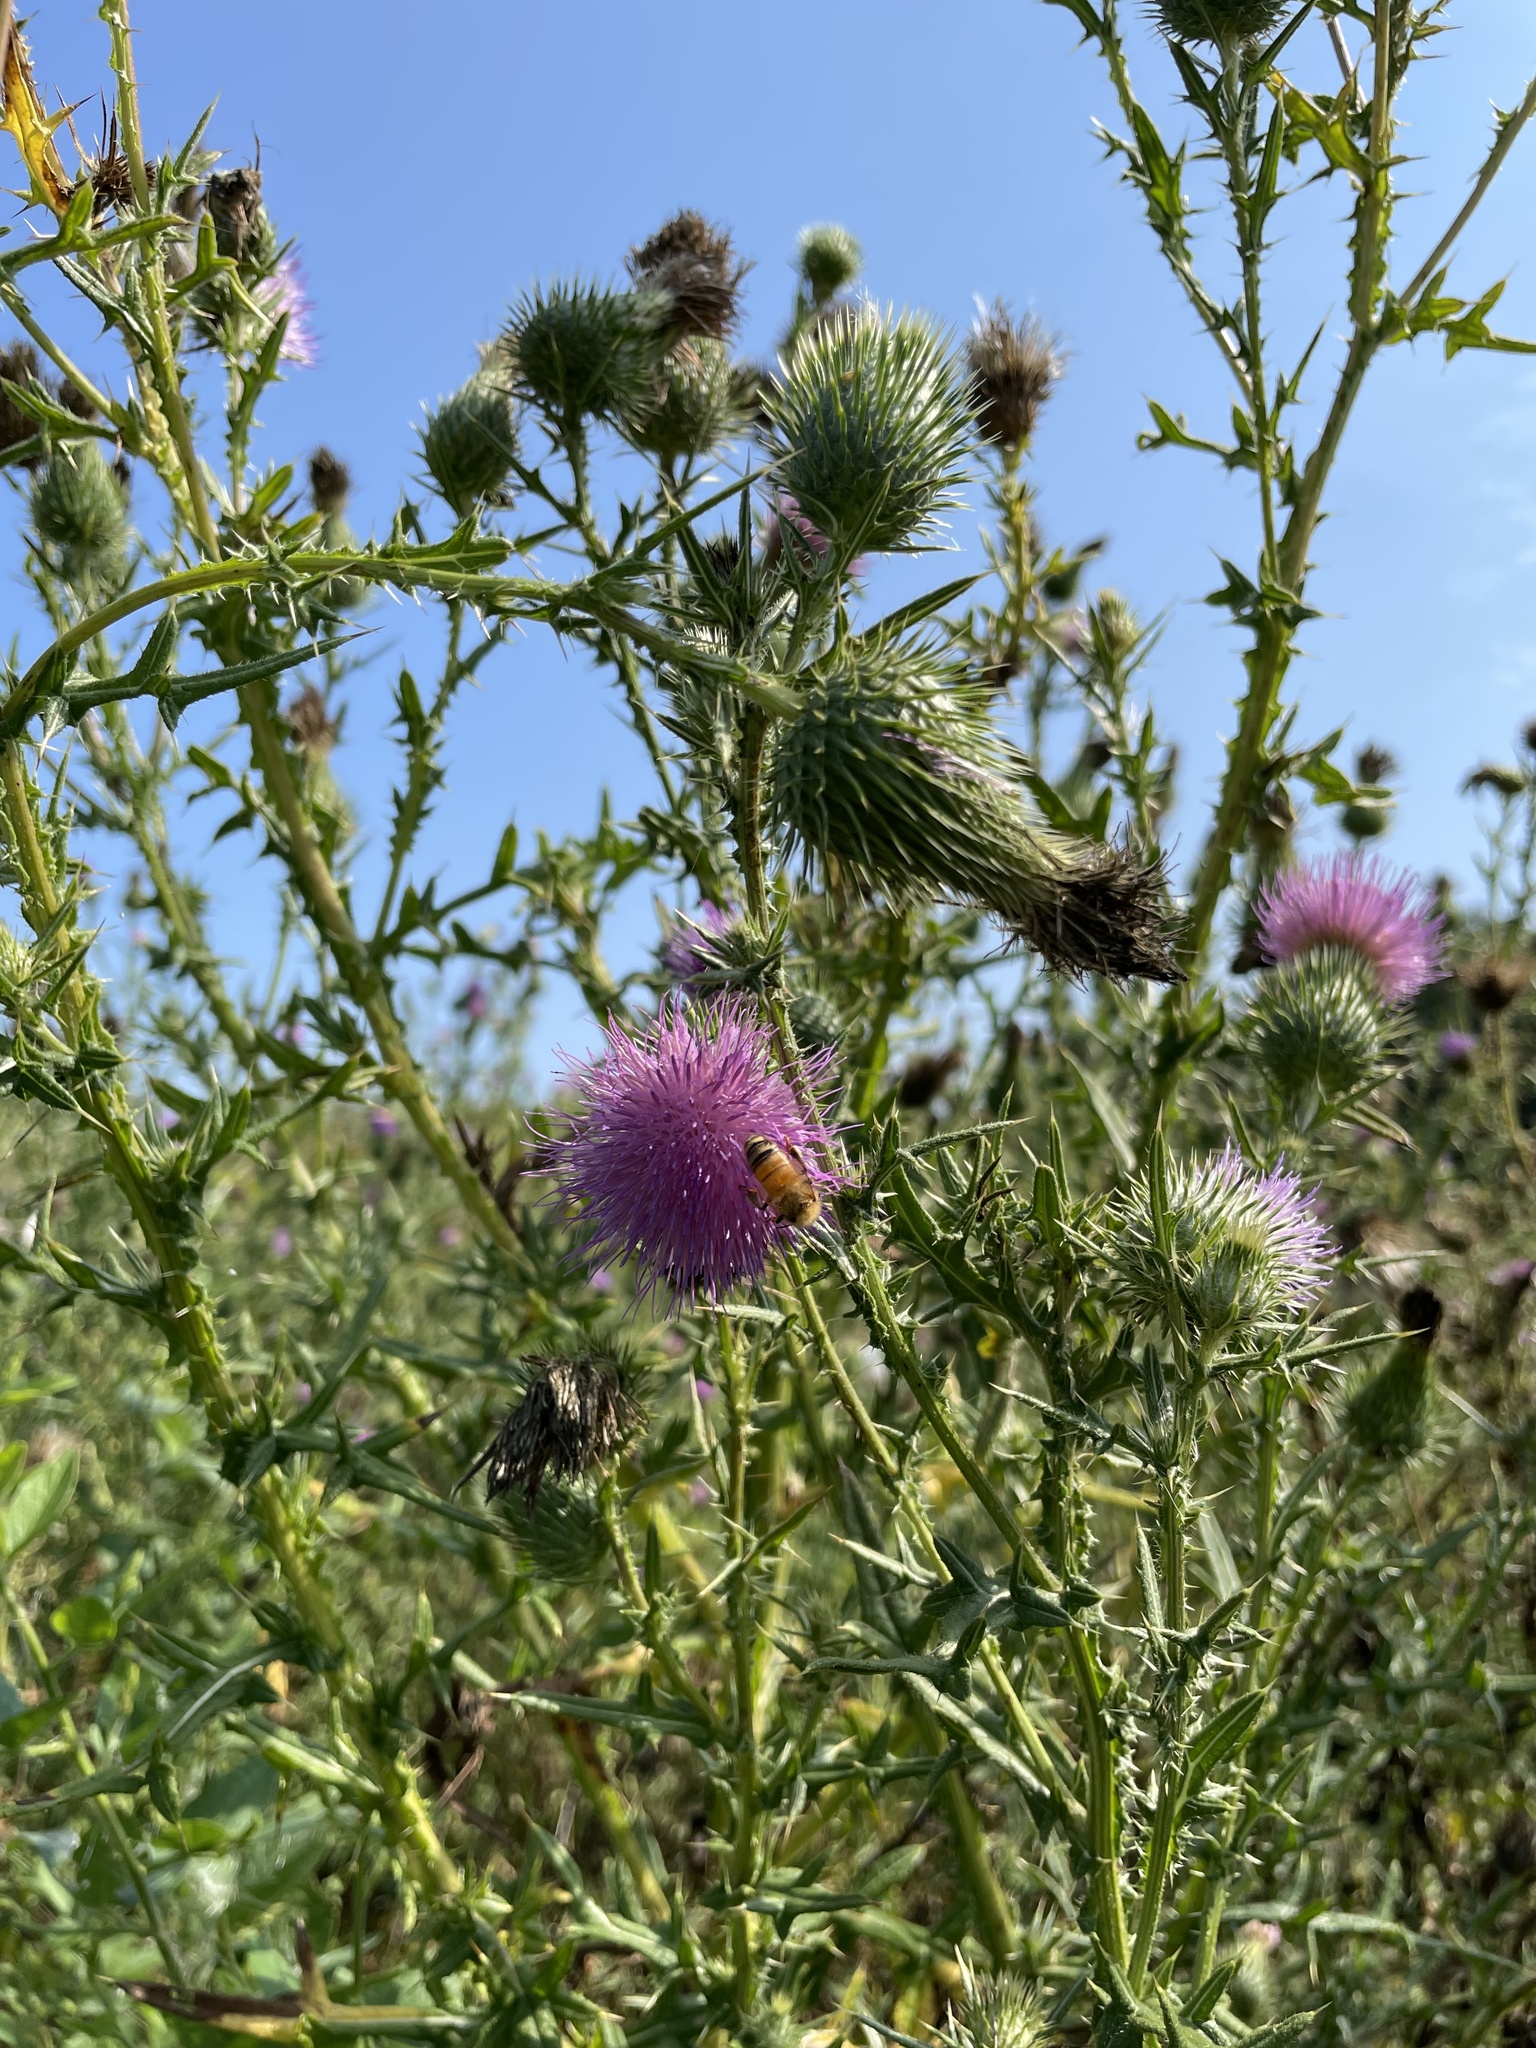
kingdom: Animalia
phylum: Arthropoda
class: Insecta
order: Hymenoptera
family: Apidae
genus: Apis
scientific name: Apis mellifera
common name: Honey bee
